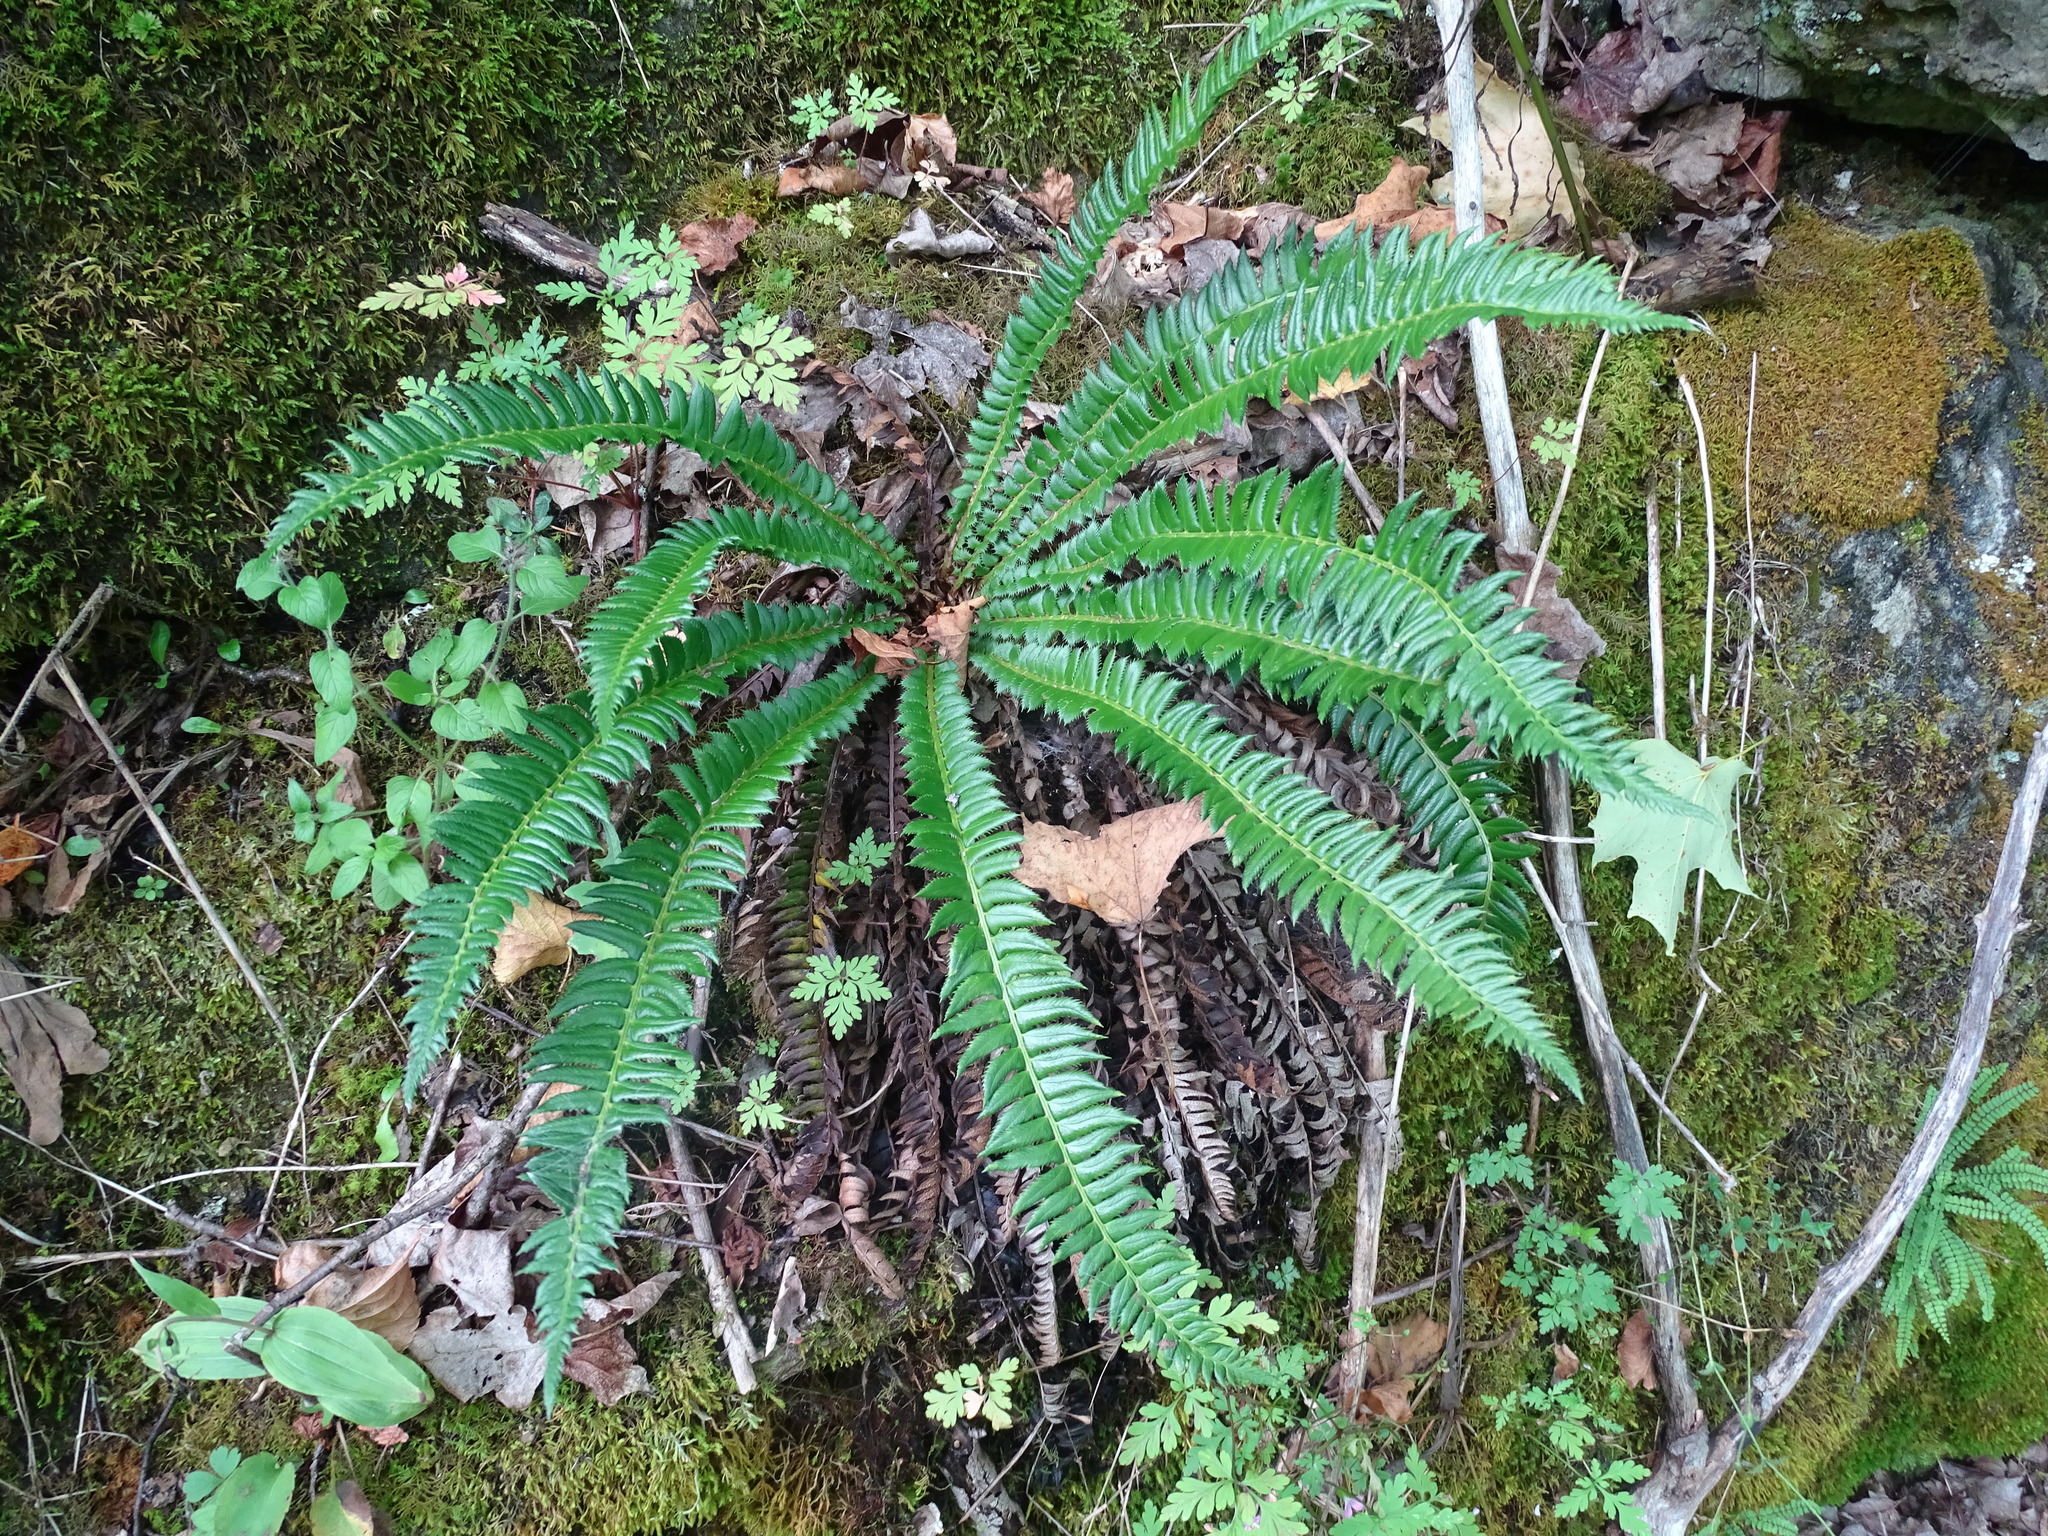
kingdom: Plantae
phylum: Tracheophyta
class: Polypodiopsida
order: Polypodiales
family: Dryopteridaceae
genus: Polystichum
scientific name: Polystichum lonchitis
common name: Holly fern
